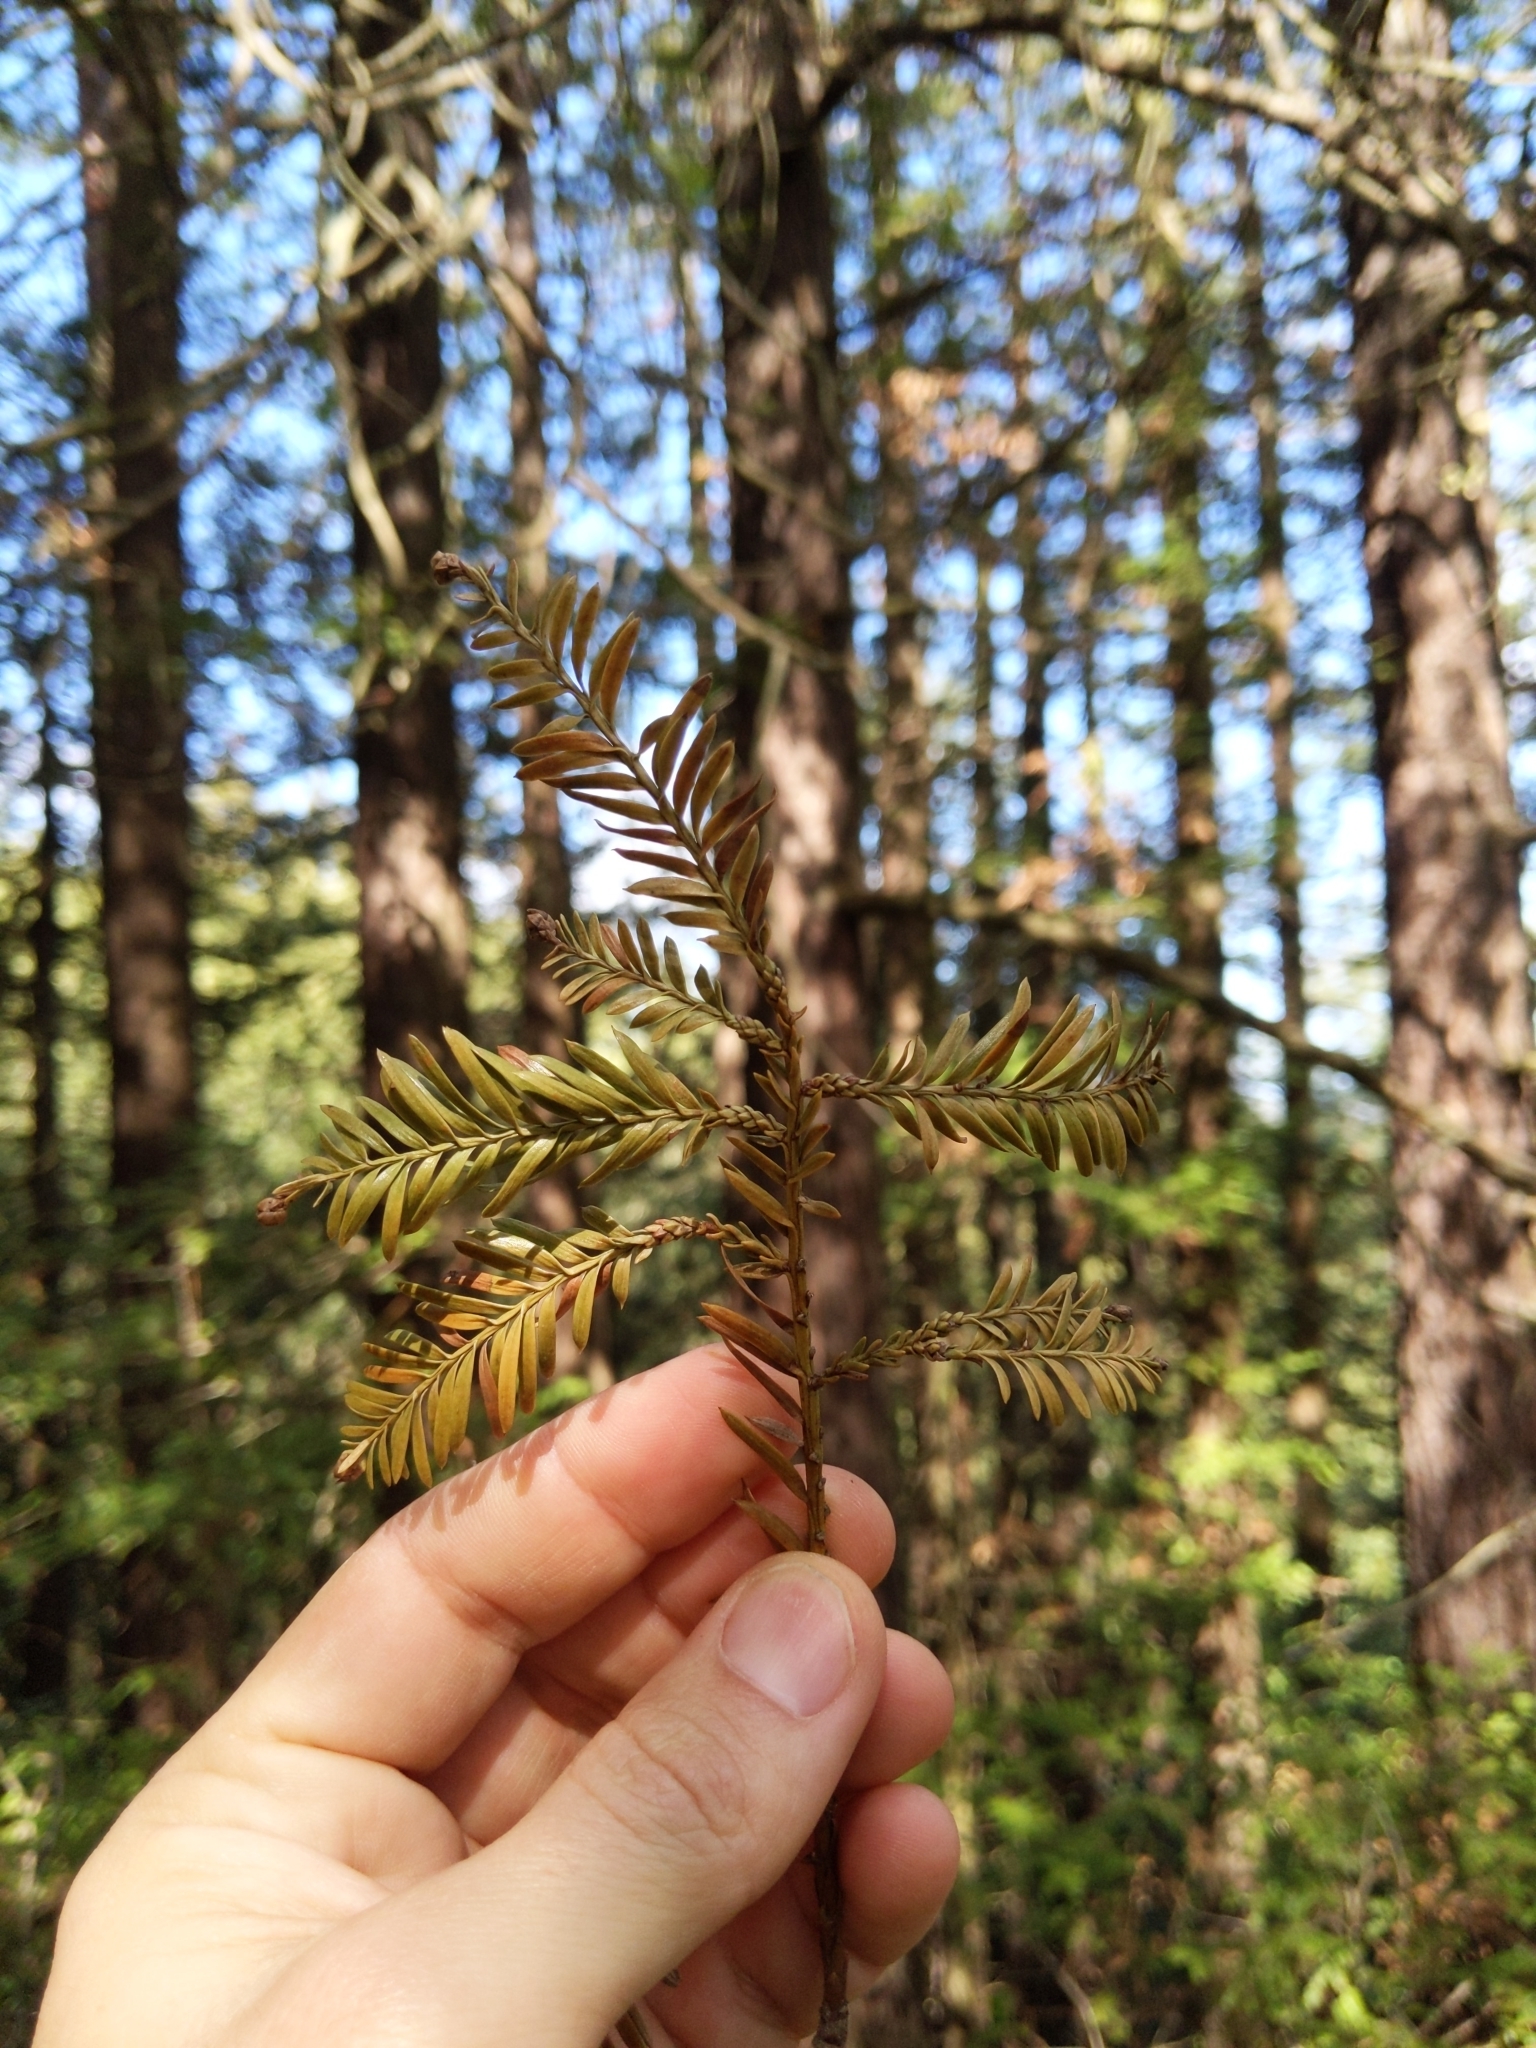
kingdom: Plantae
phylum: Tracheophyta
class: Pinopsida
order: Pinales
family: Cupressaceae
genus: Sequoia
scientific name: Sequoia sempervirens
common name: Coast redwood
